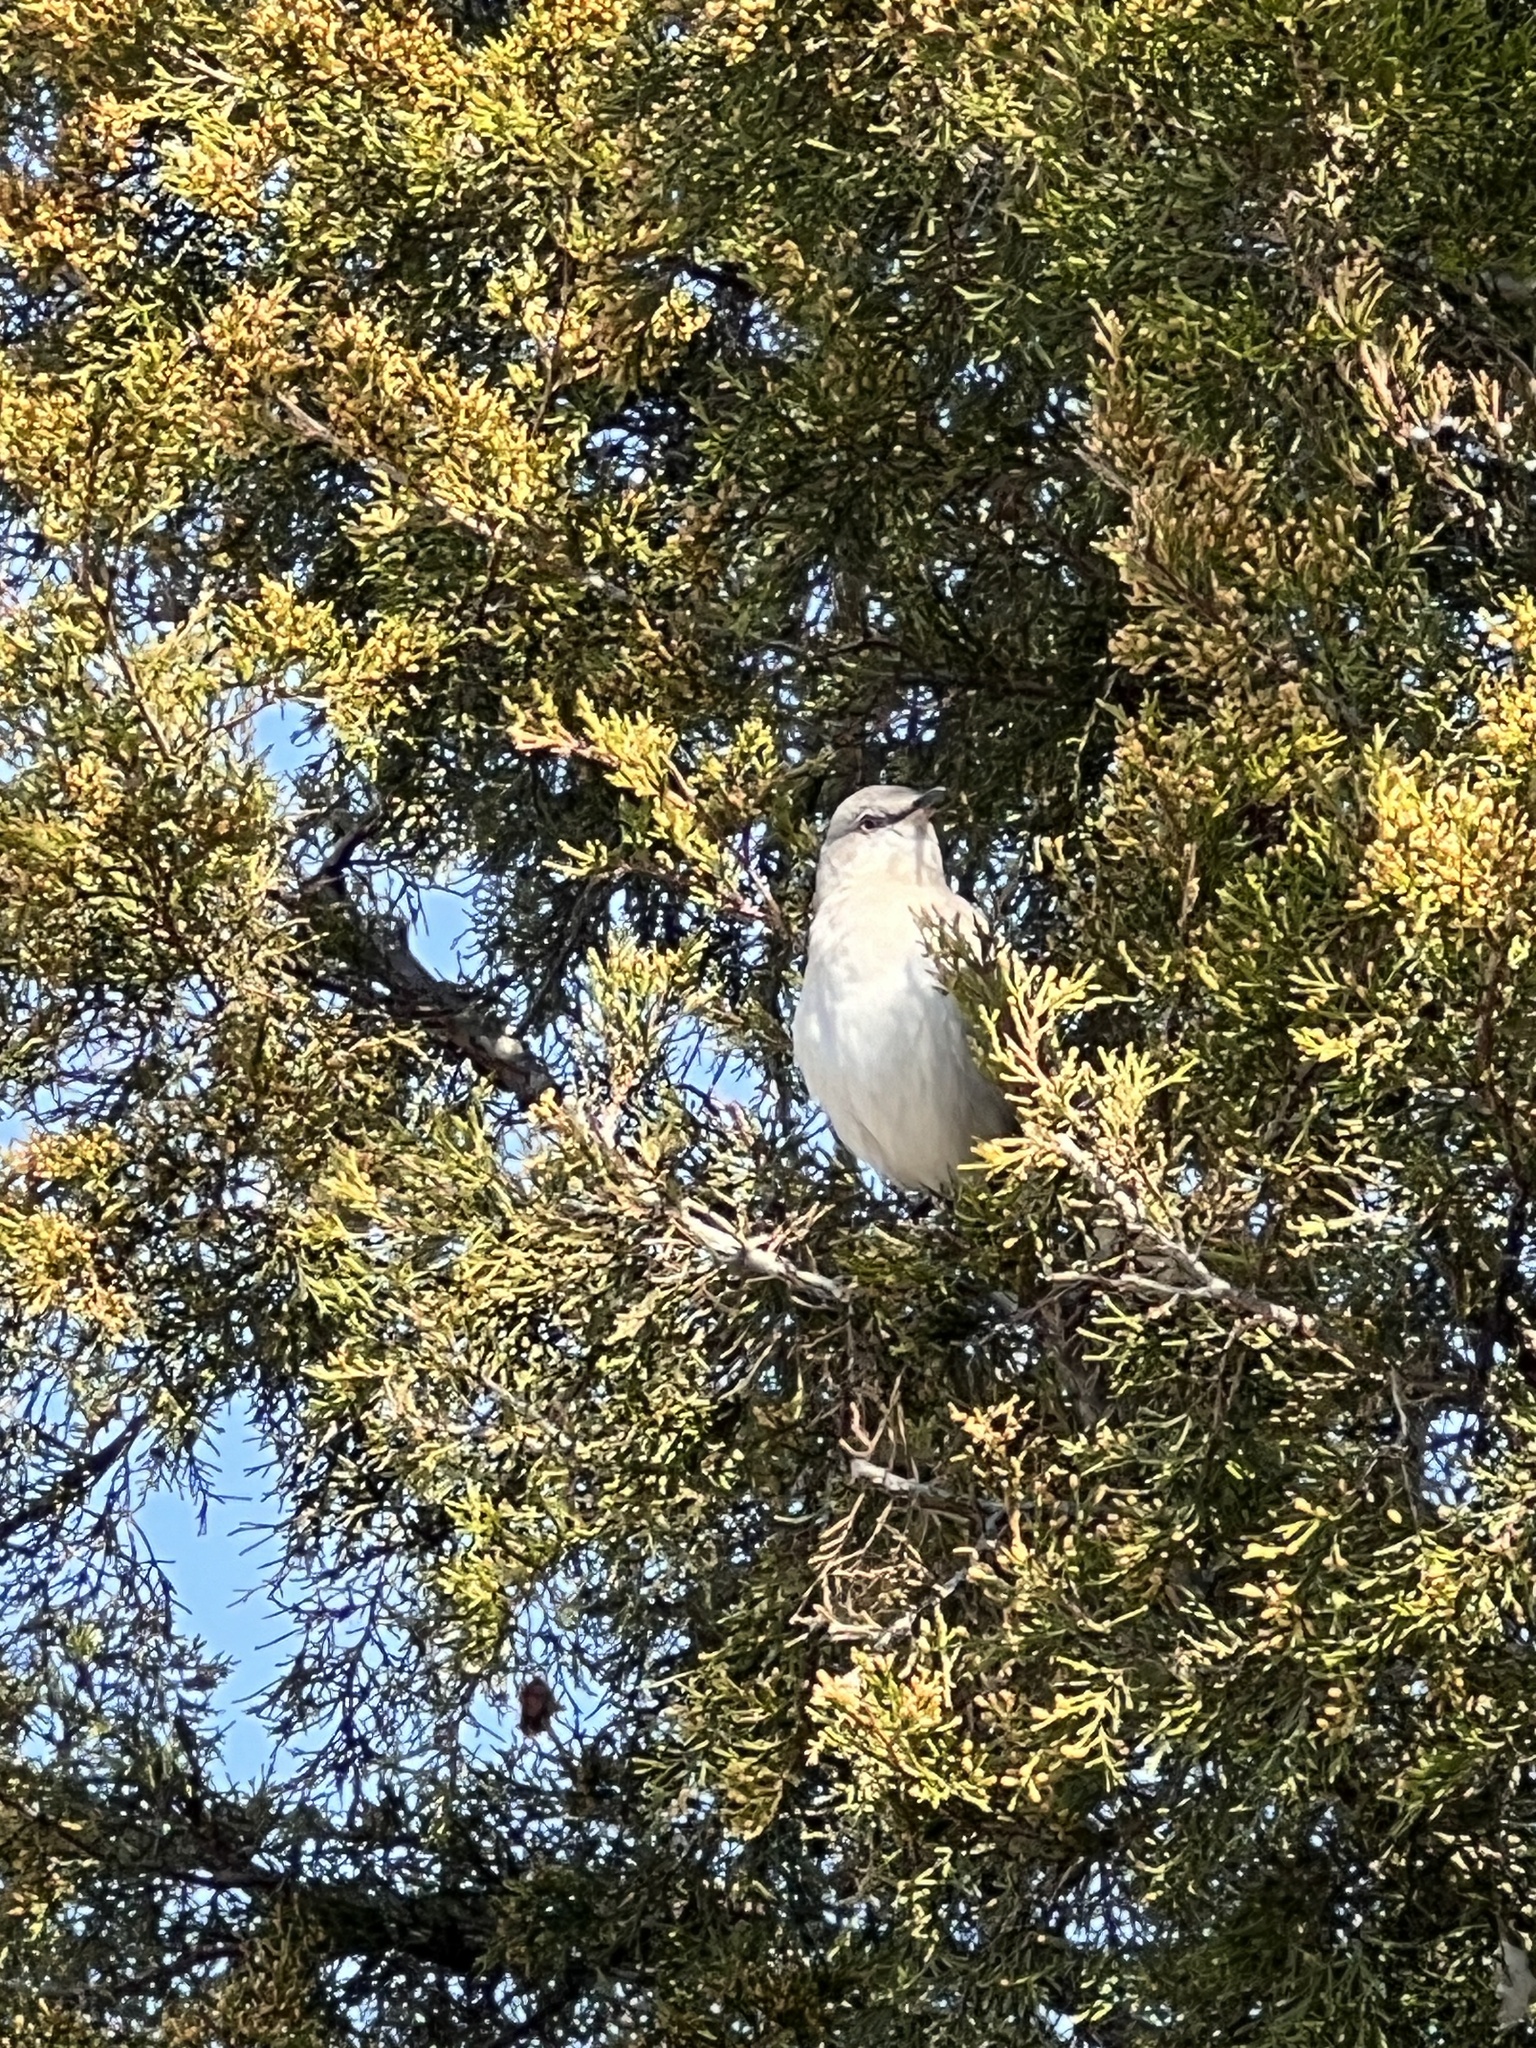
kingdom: Animalia
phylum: Chordata
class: Aves
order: Passeriformes
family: Mimidae
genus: Mimus
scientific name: Mimus polyglottos
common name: Northern mockingbird
